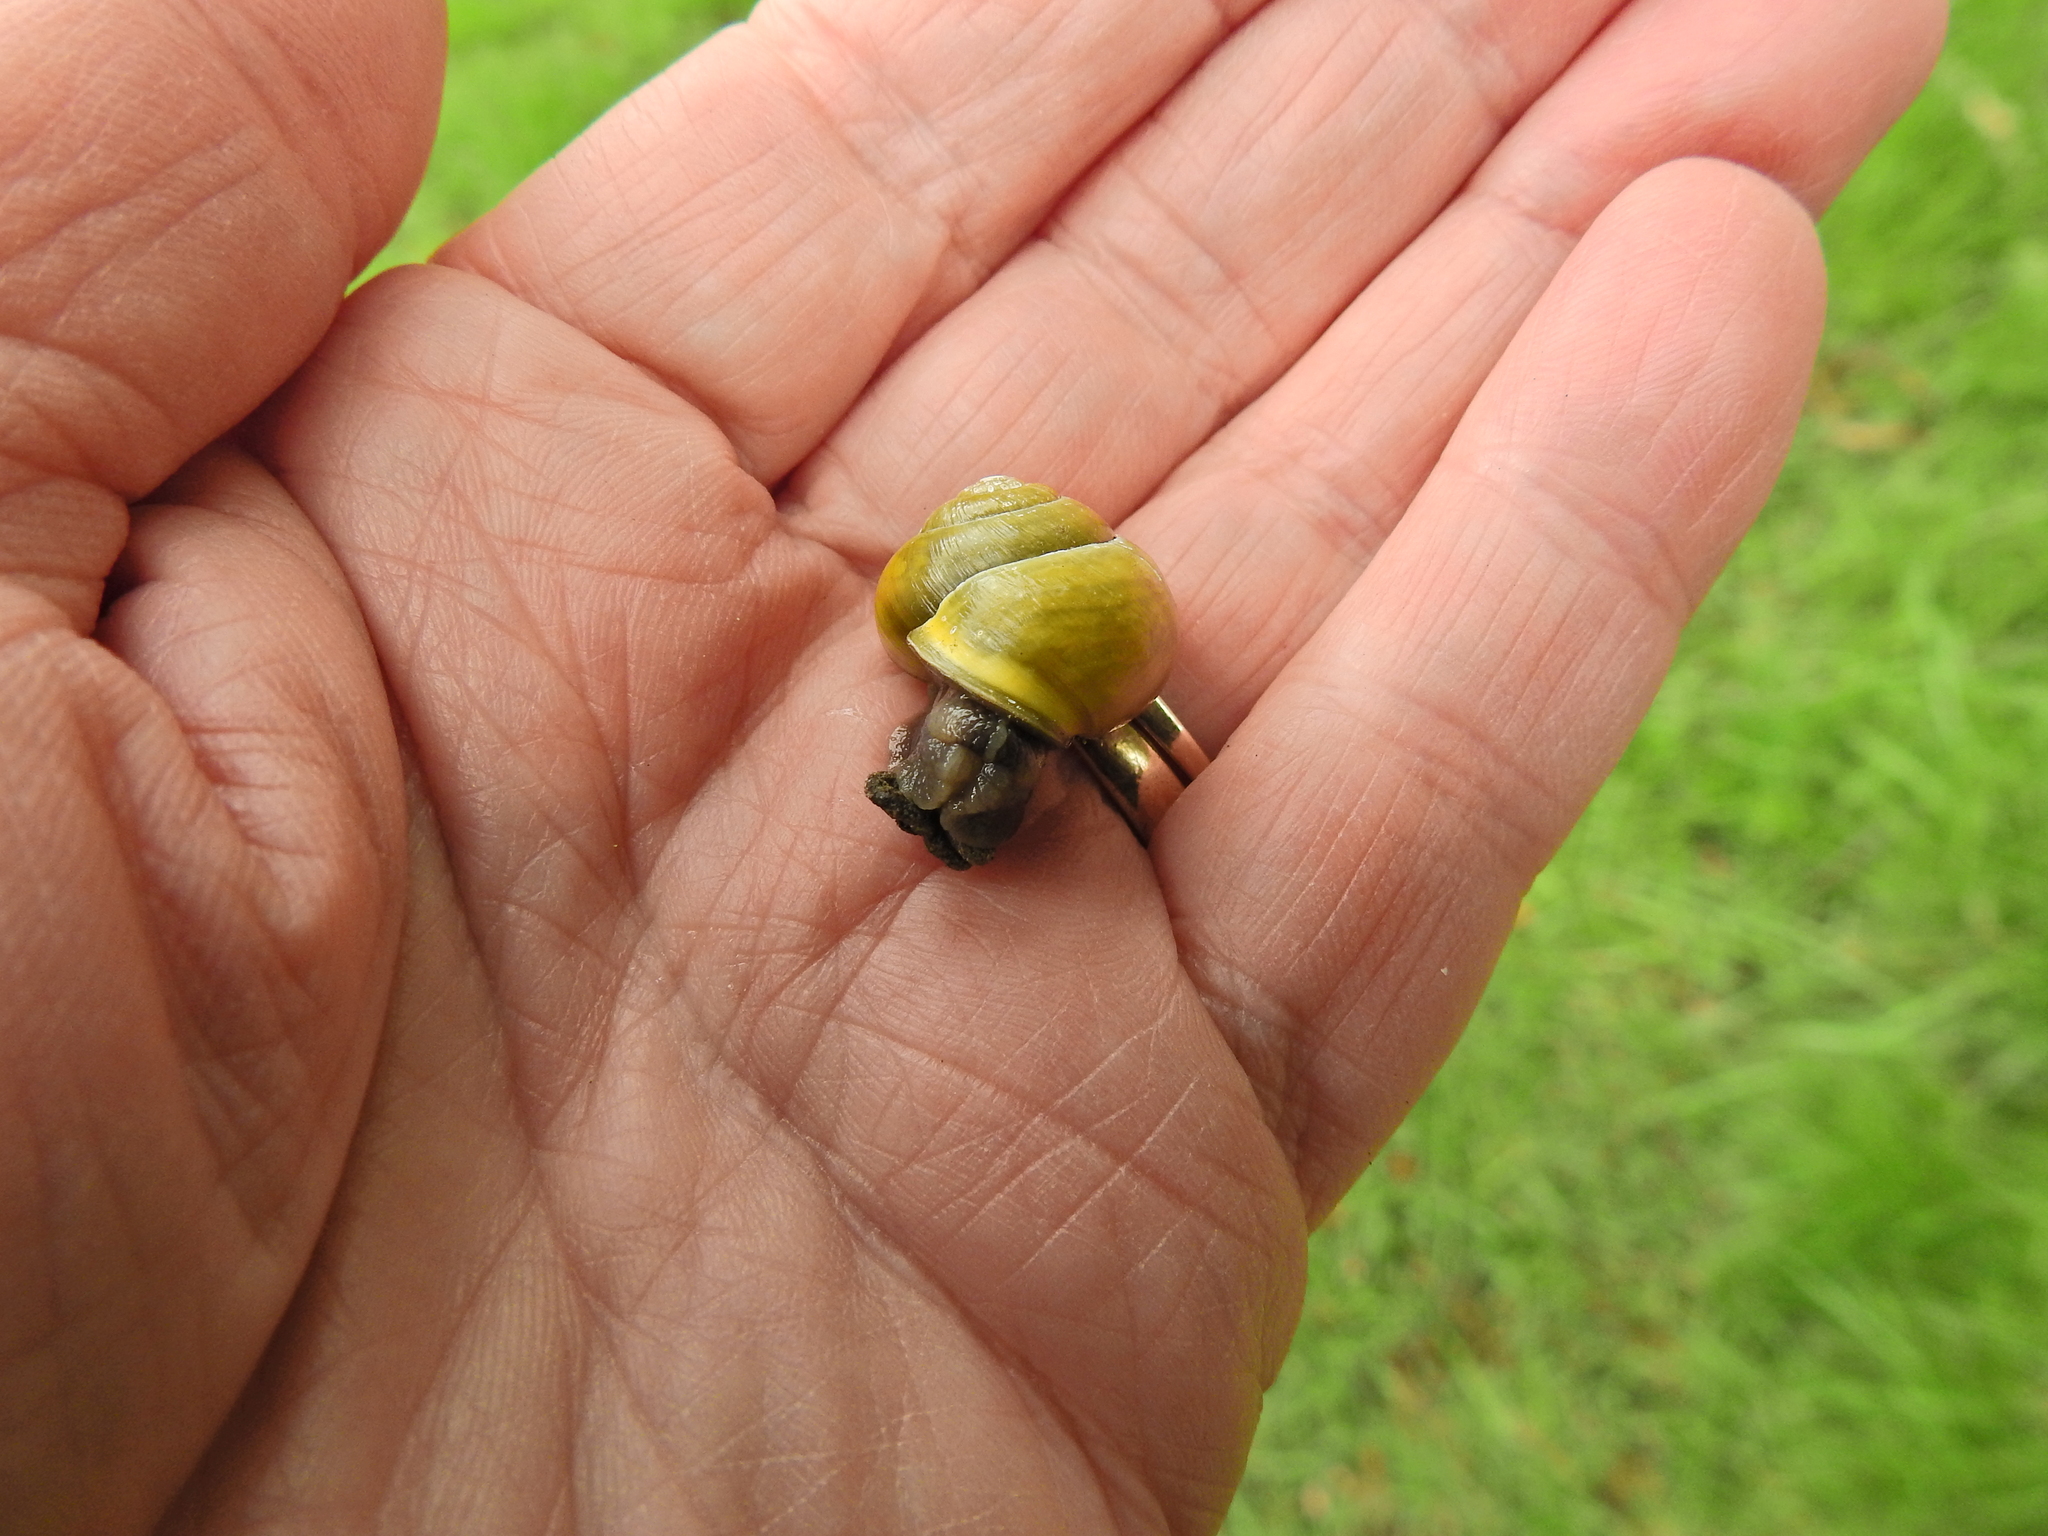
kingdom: Animalia
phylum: Mollusca
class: Gastropoda
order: Stylommatophora
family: Helicidae
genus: Cepaea
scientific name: Cepaea hortensis
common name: White-lip gardensnail
